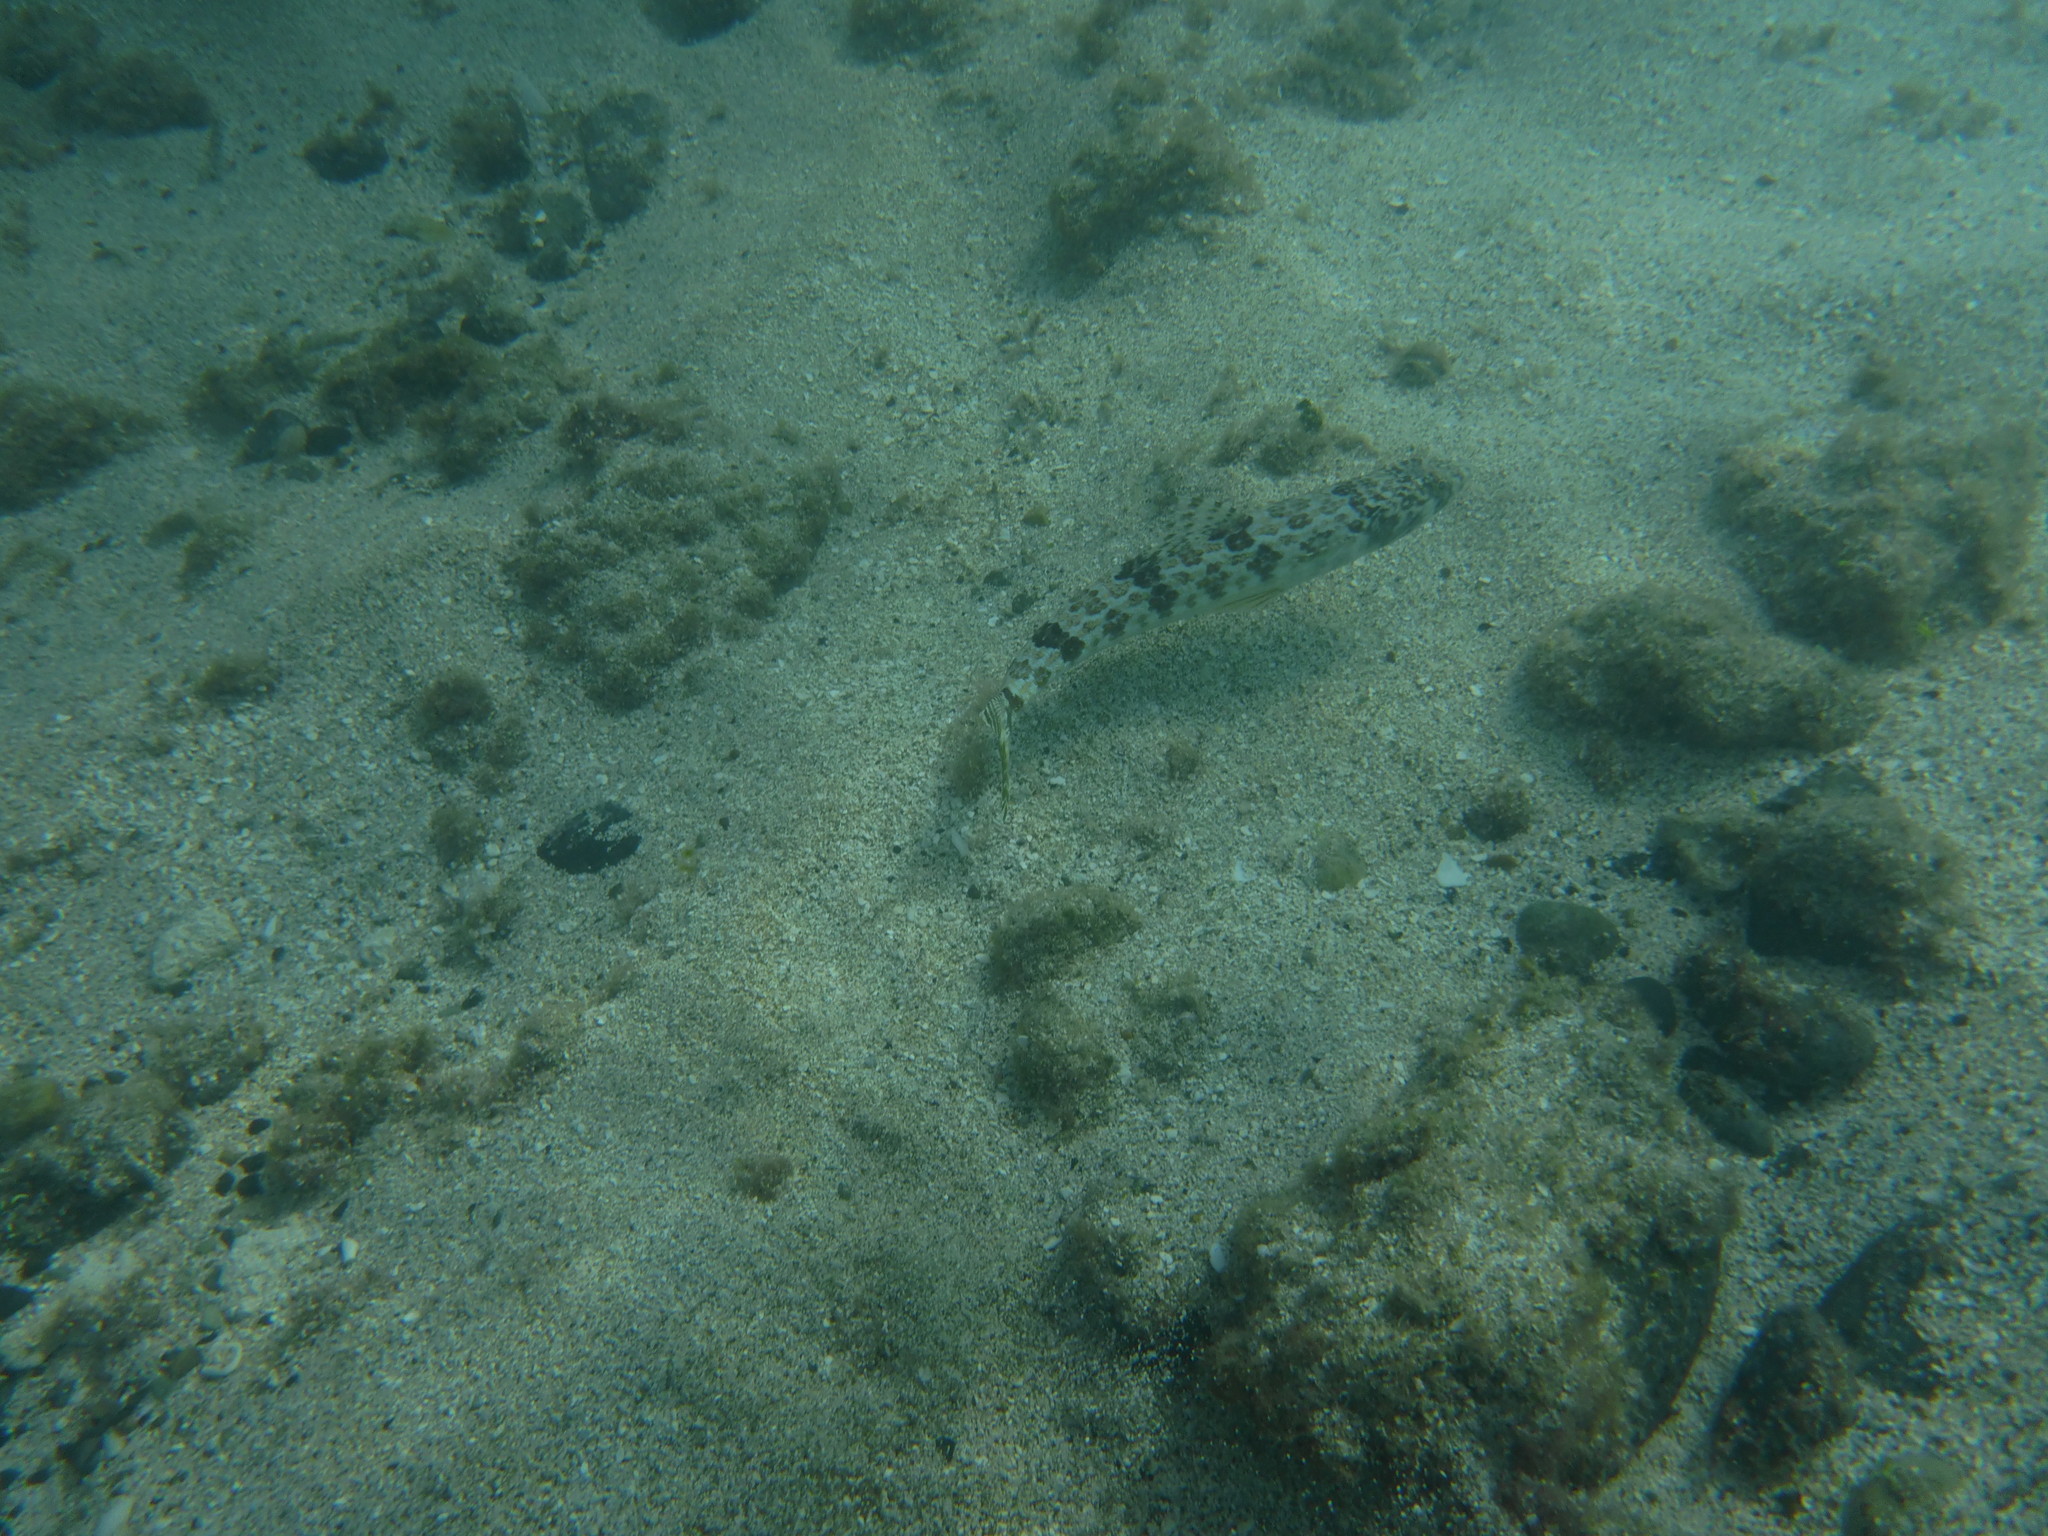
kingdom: Animalia
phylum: Chordata
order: Aulopiformes
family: Synodontidae
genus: Synodus
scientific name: Synodus intermedius
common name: Sand diver
